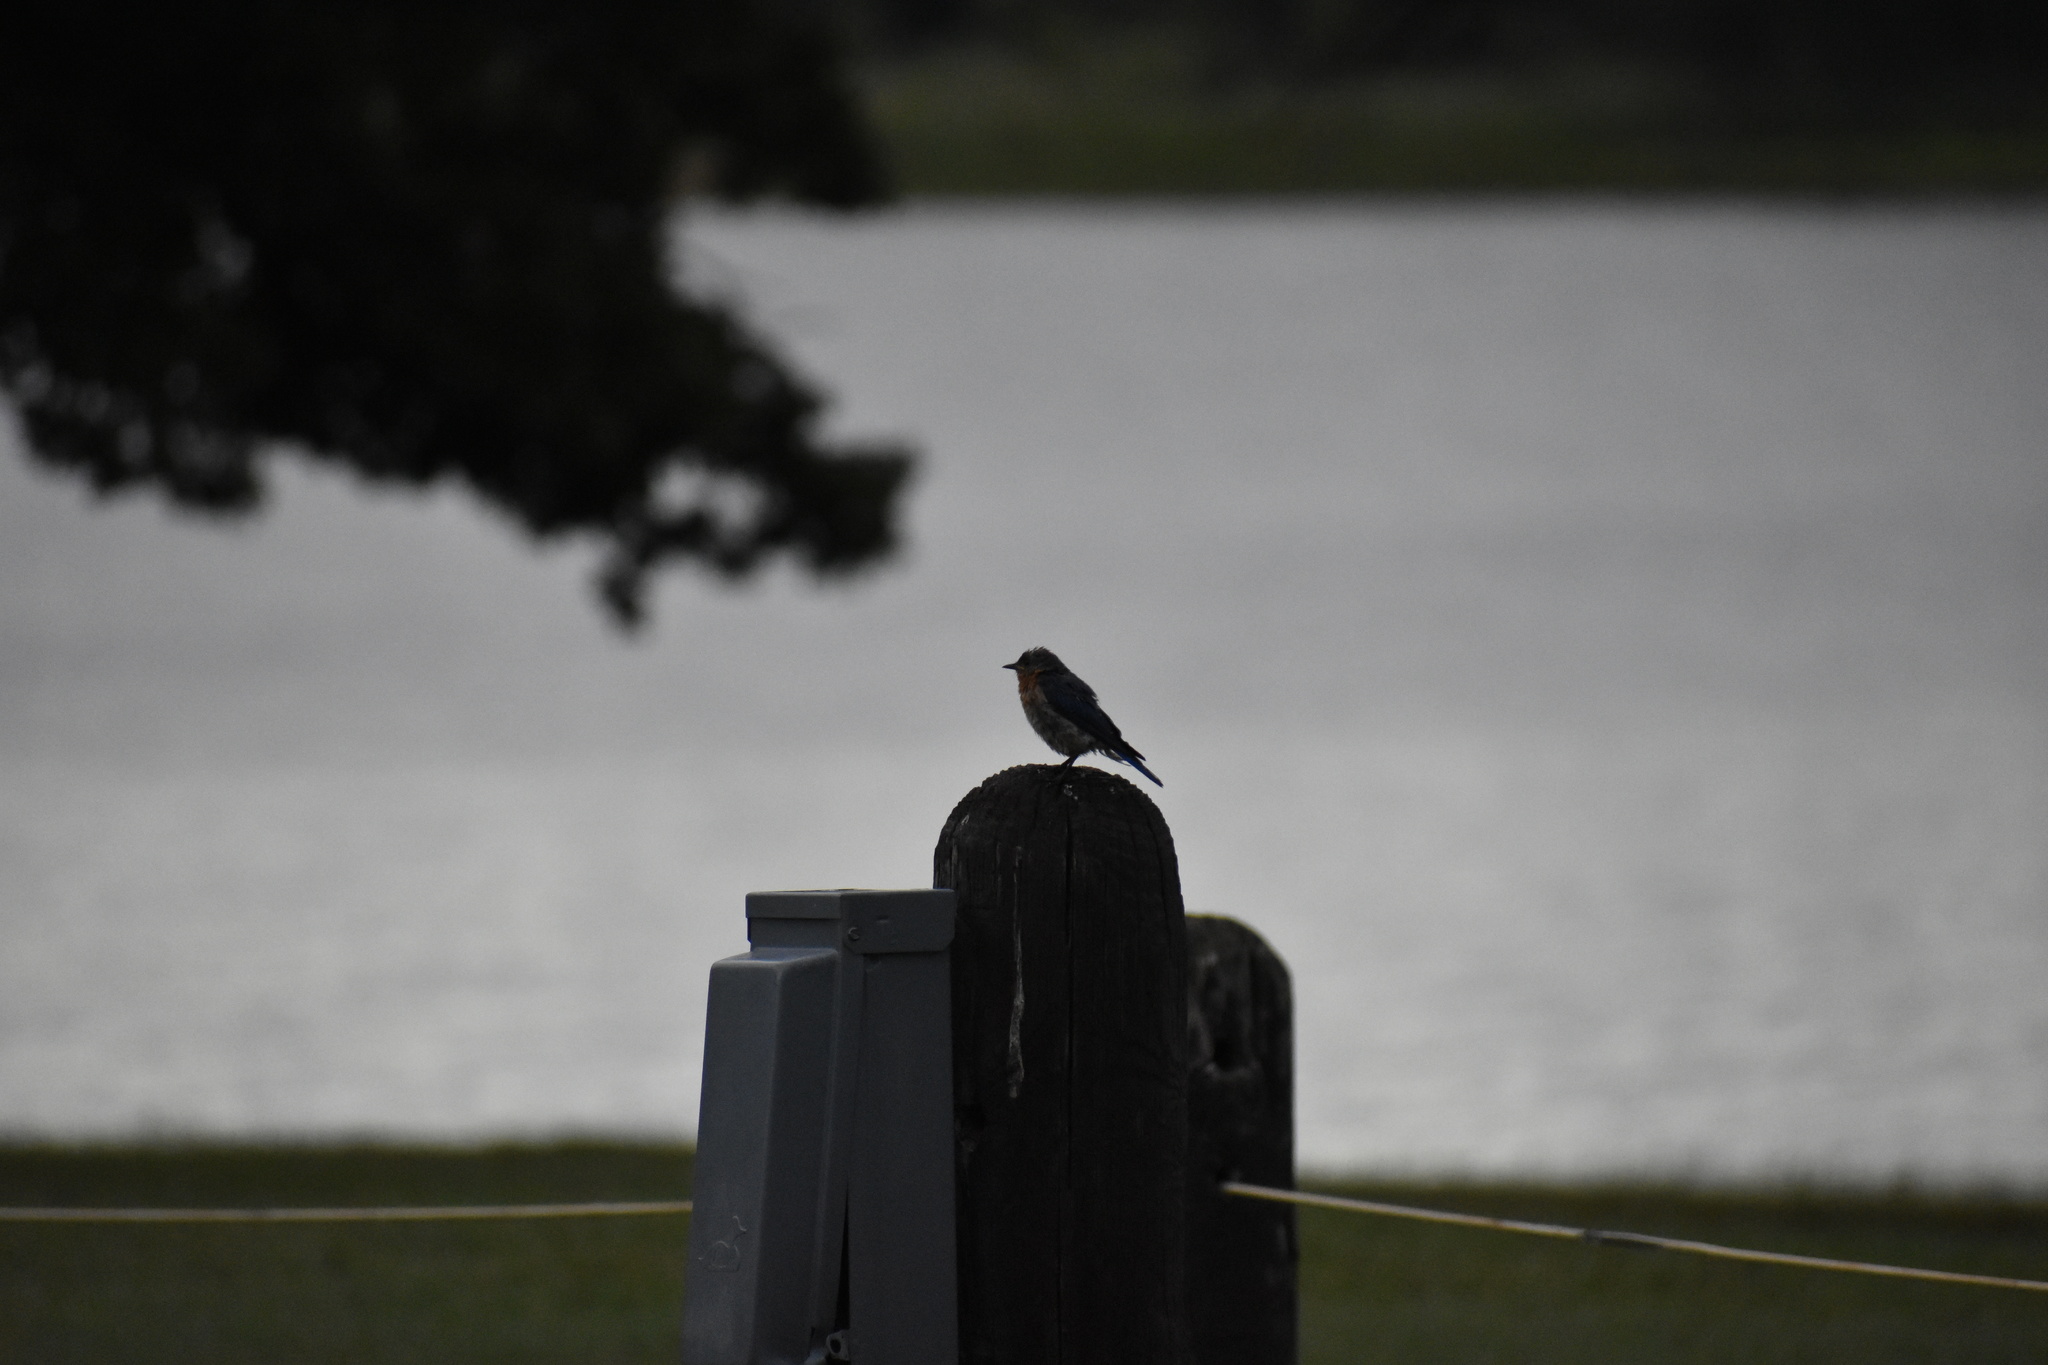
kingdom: Animalia
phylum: Chordata
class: Aves
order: Passeriformes
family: Turdidae
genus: Sialia
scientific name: Sialia sialis
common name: Eastern bluebird
